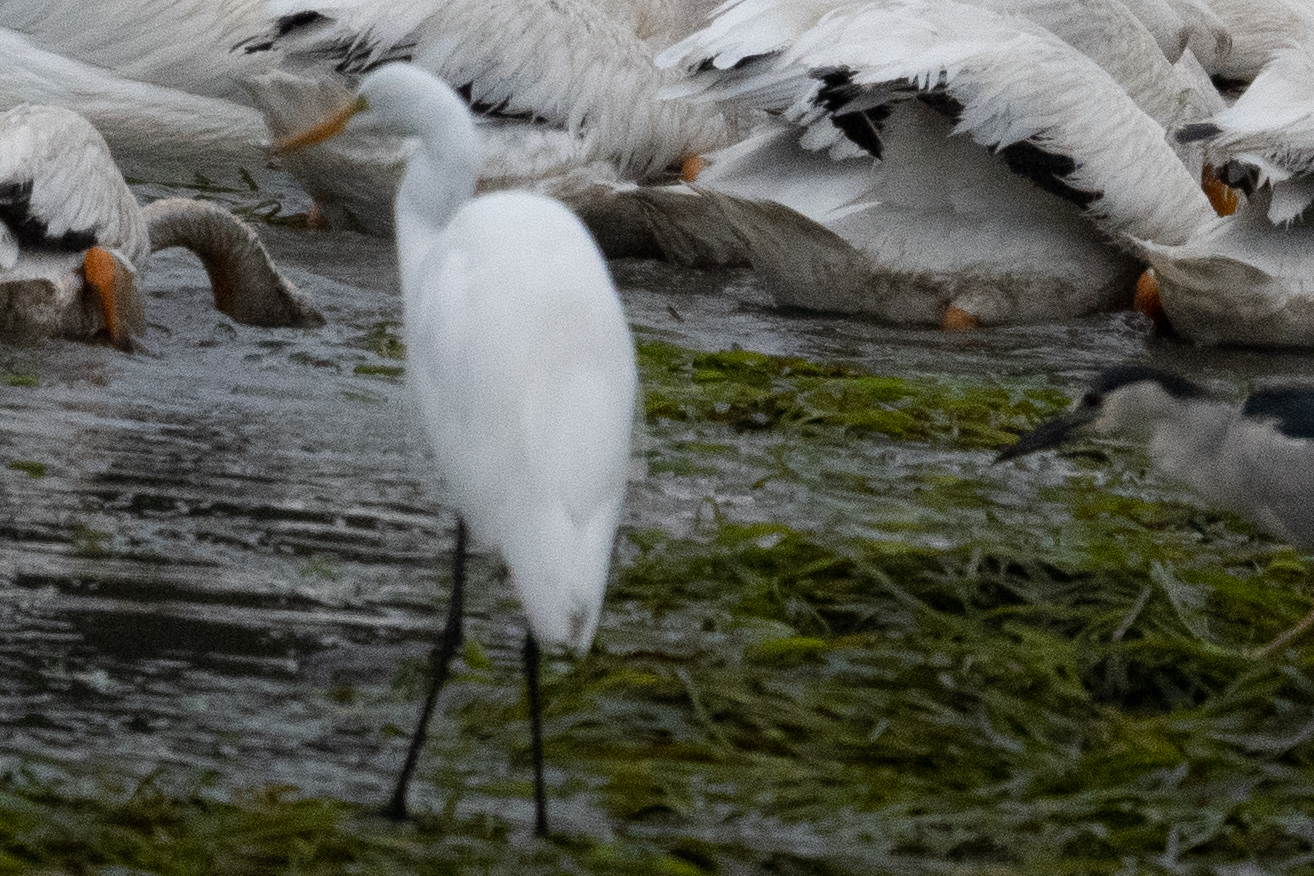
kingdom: Animalia
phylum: Chordata
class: Aves
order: Pelecaniformes
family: Ardeidae
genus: Ardea
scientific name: Ardea alba
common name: Great egret
